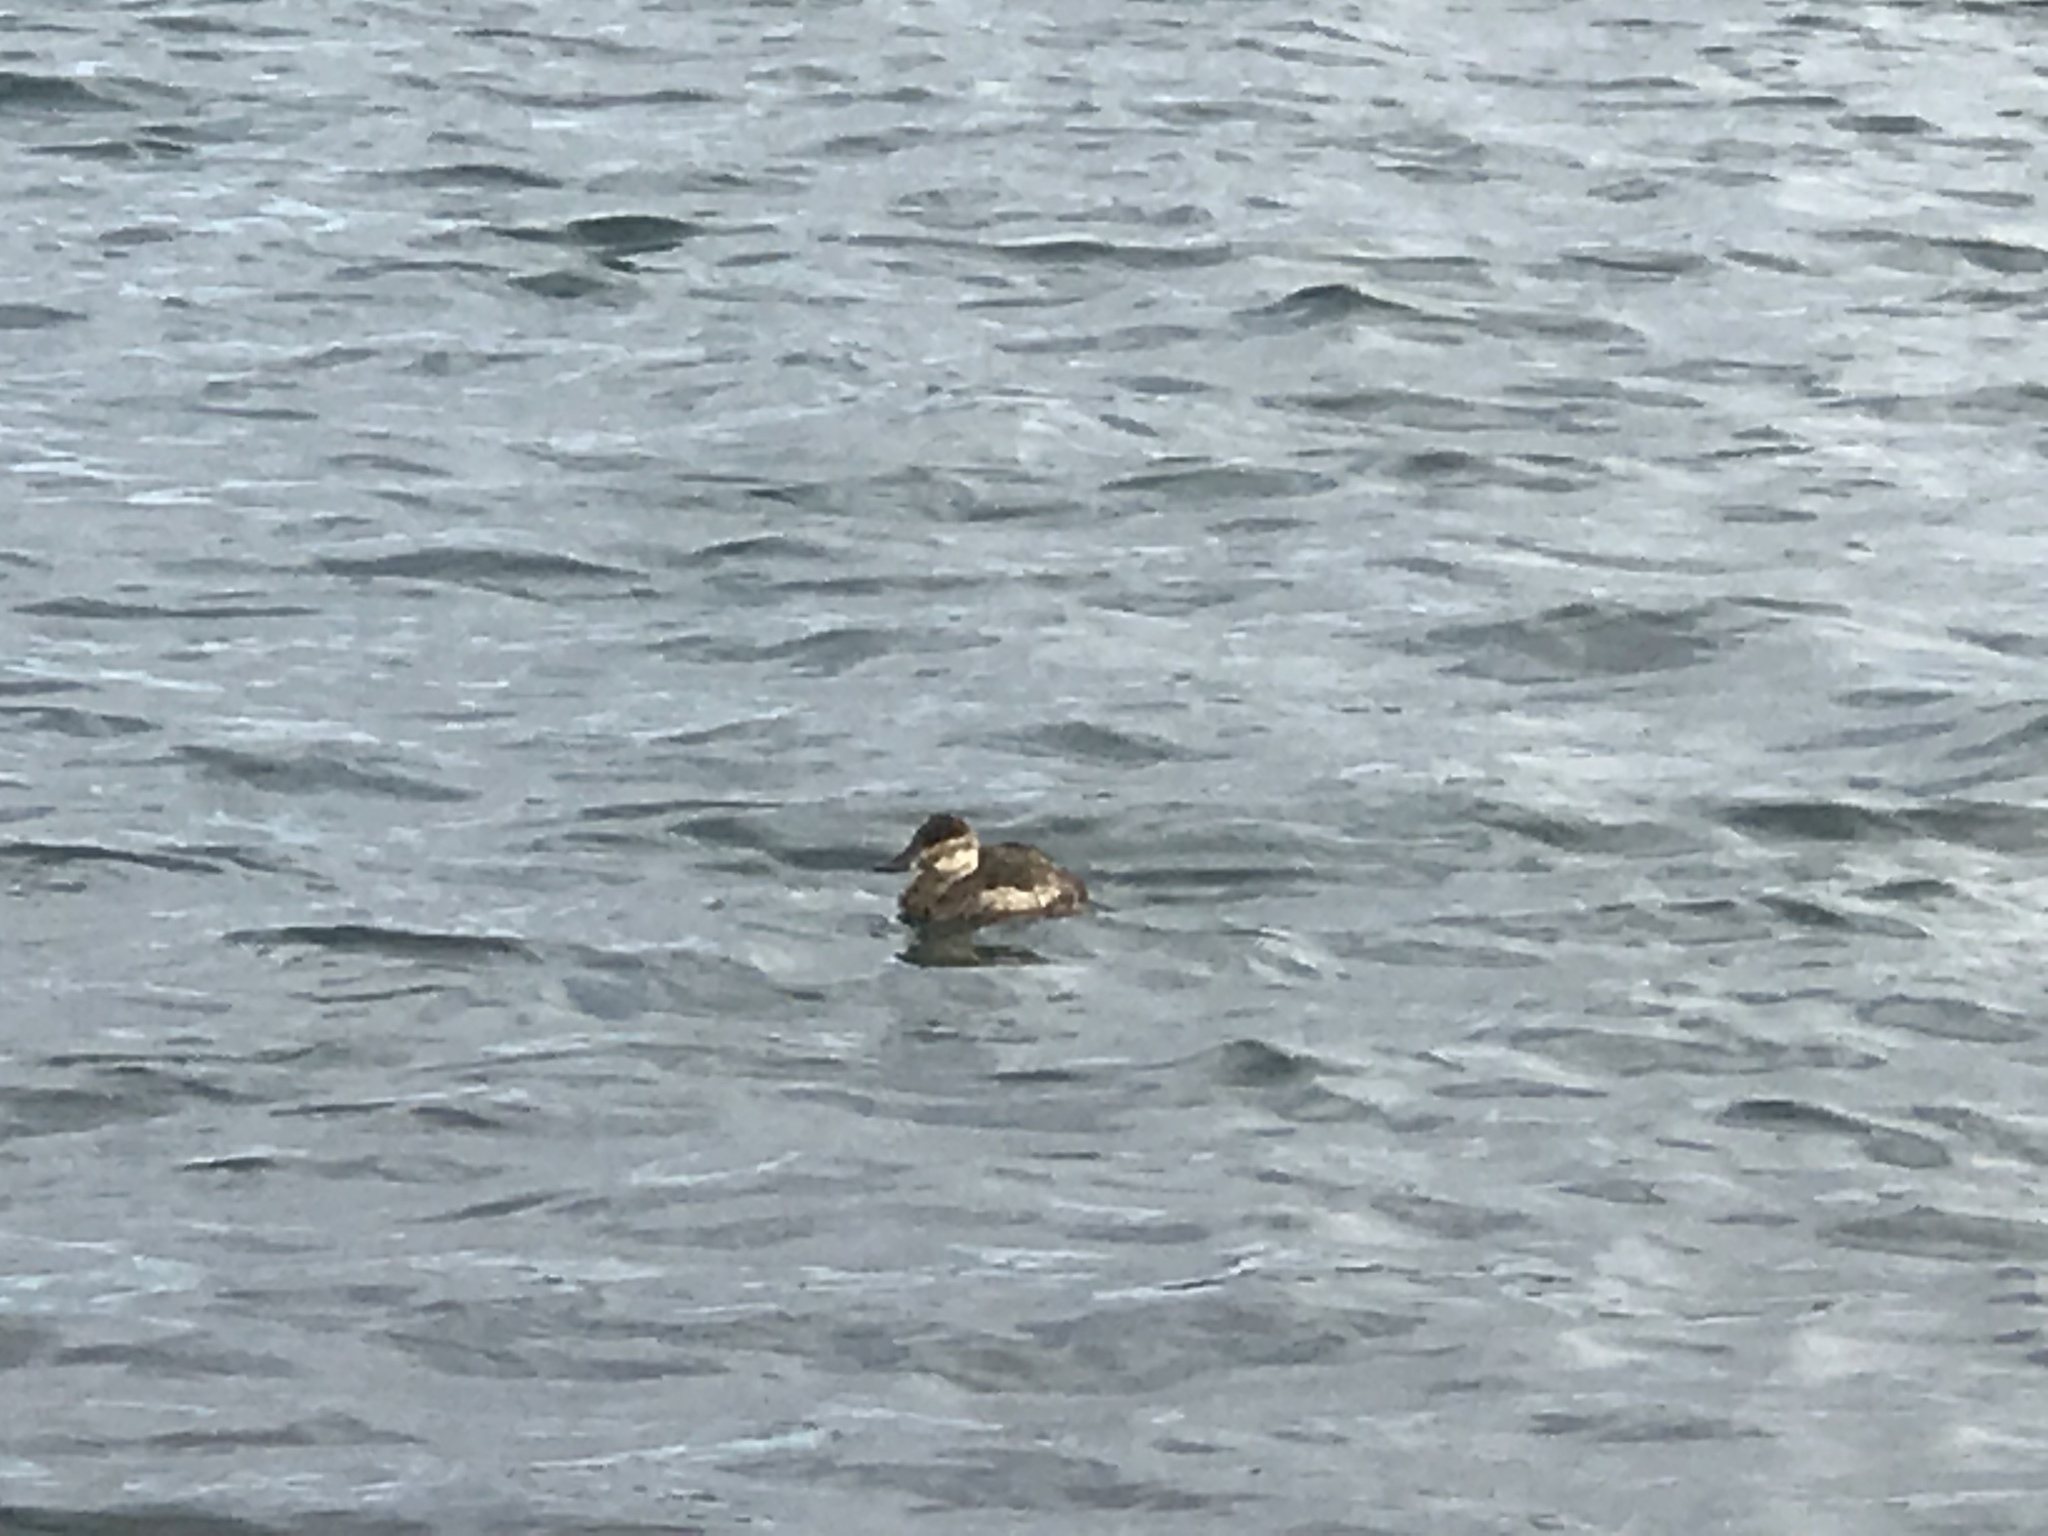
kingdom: Animalia
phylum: Chordata
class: Aves
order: Anseriformes
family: Anatidae
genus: Oxyura
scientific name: Oxyura jamaicensis
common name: Ruddy duck
